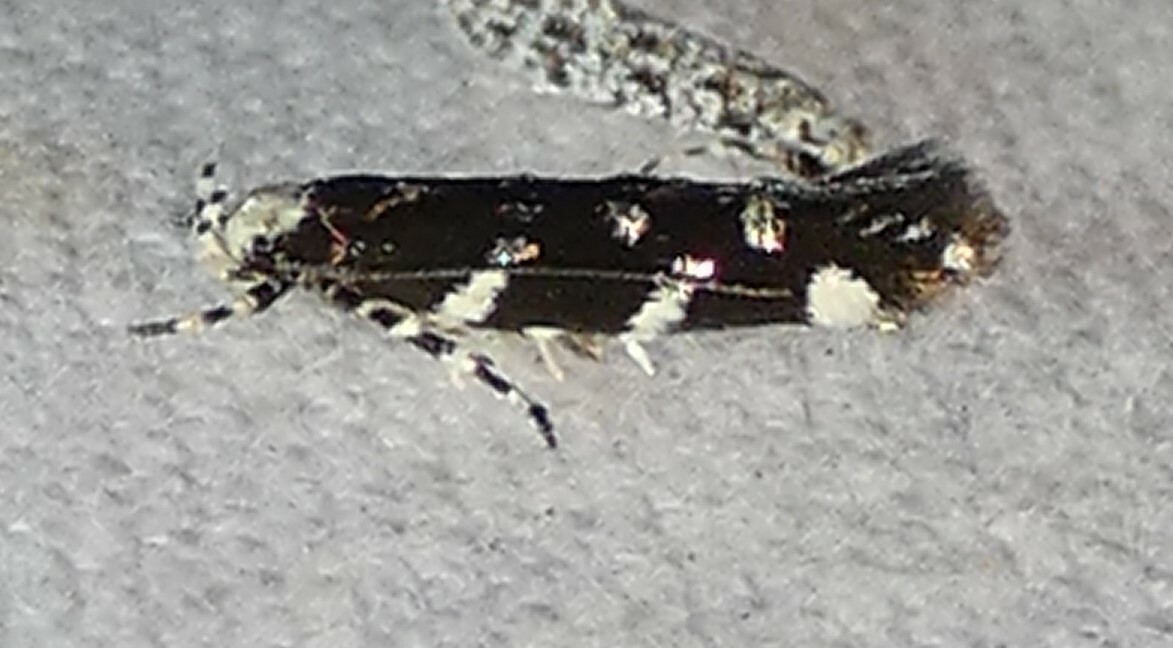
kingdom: Animalia
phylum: Arthropoda
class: Insecta
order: Lepidoptera
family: Cosmopterigidae
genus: Eteobalea
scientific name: Eteobalea sexnotella
